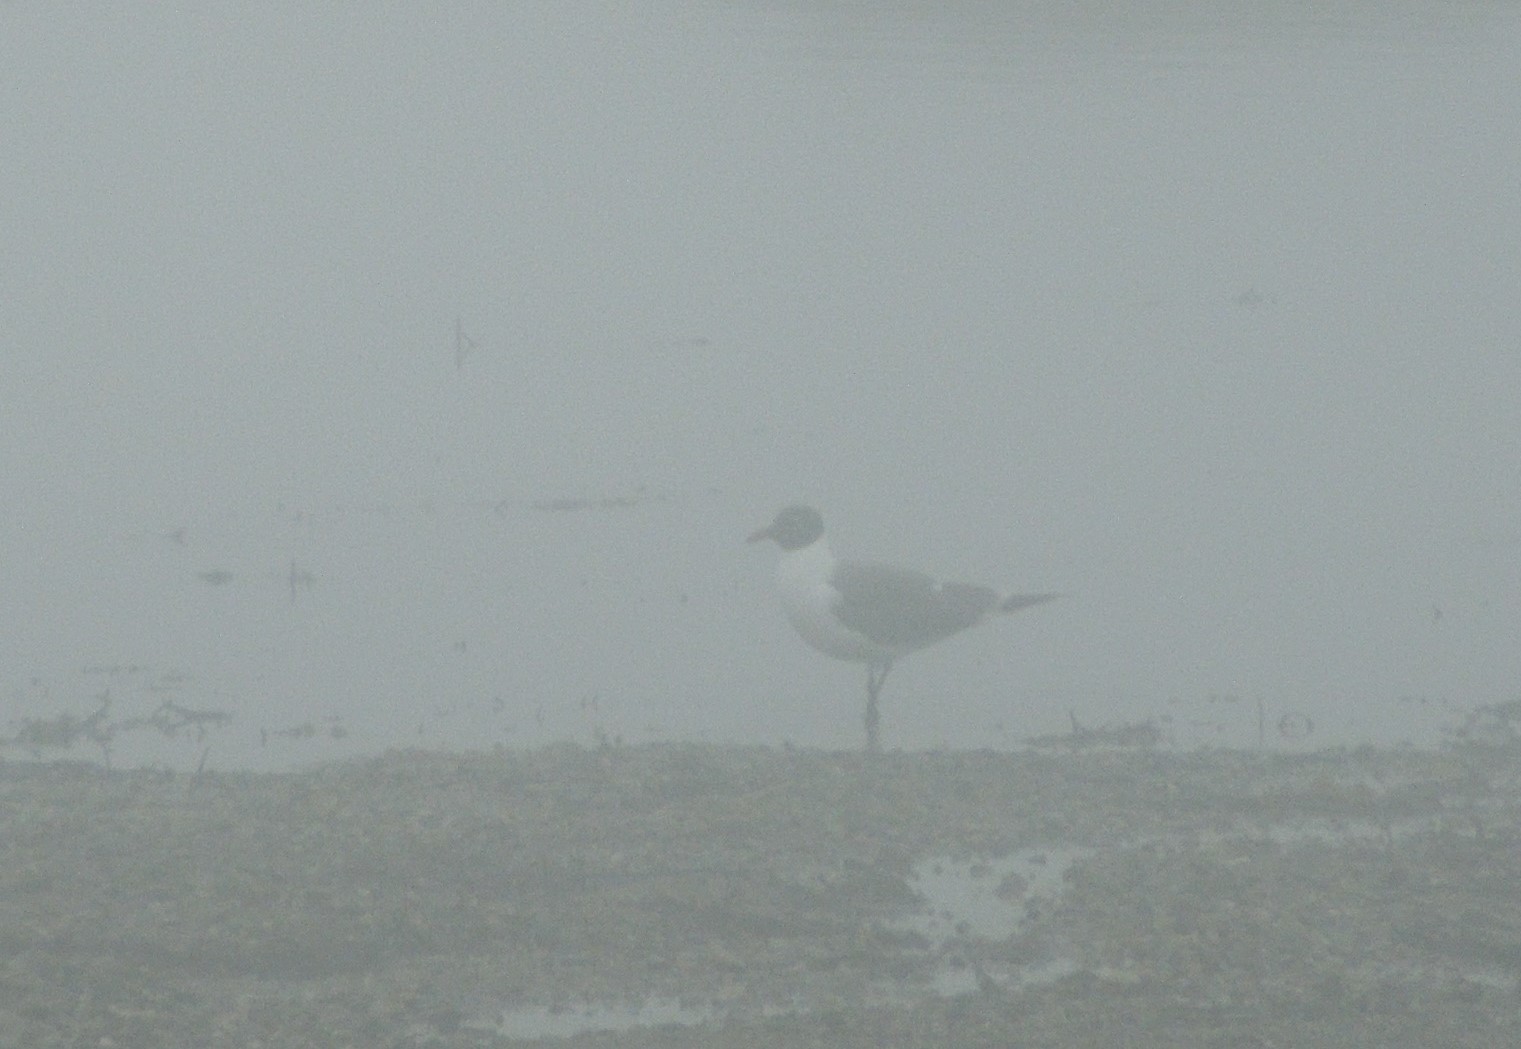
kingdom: Animalia
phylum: Chordata
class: Aves
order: Charadriiformes
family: Laridae
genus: Leucophaeus
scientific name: Leucophaeus atricilla
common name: Laughing gull
